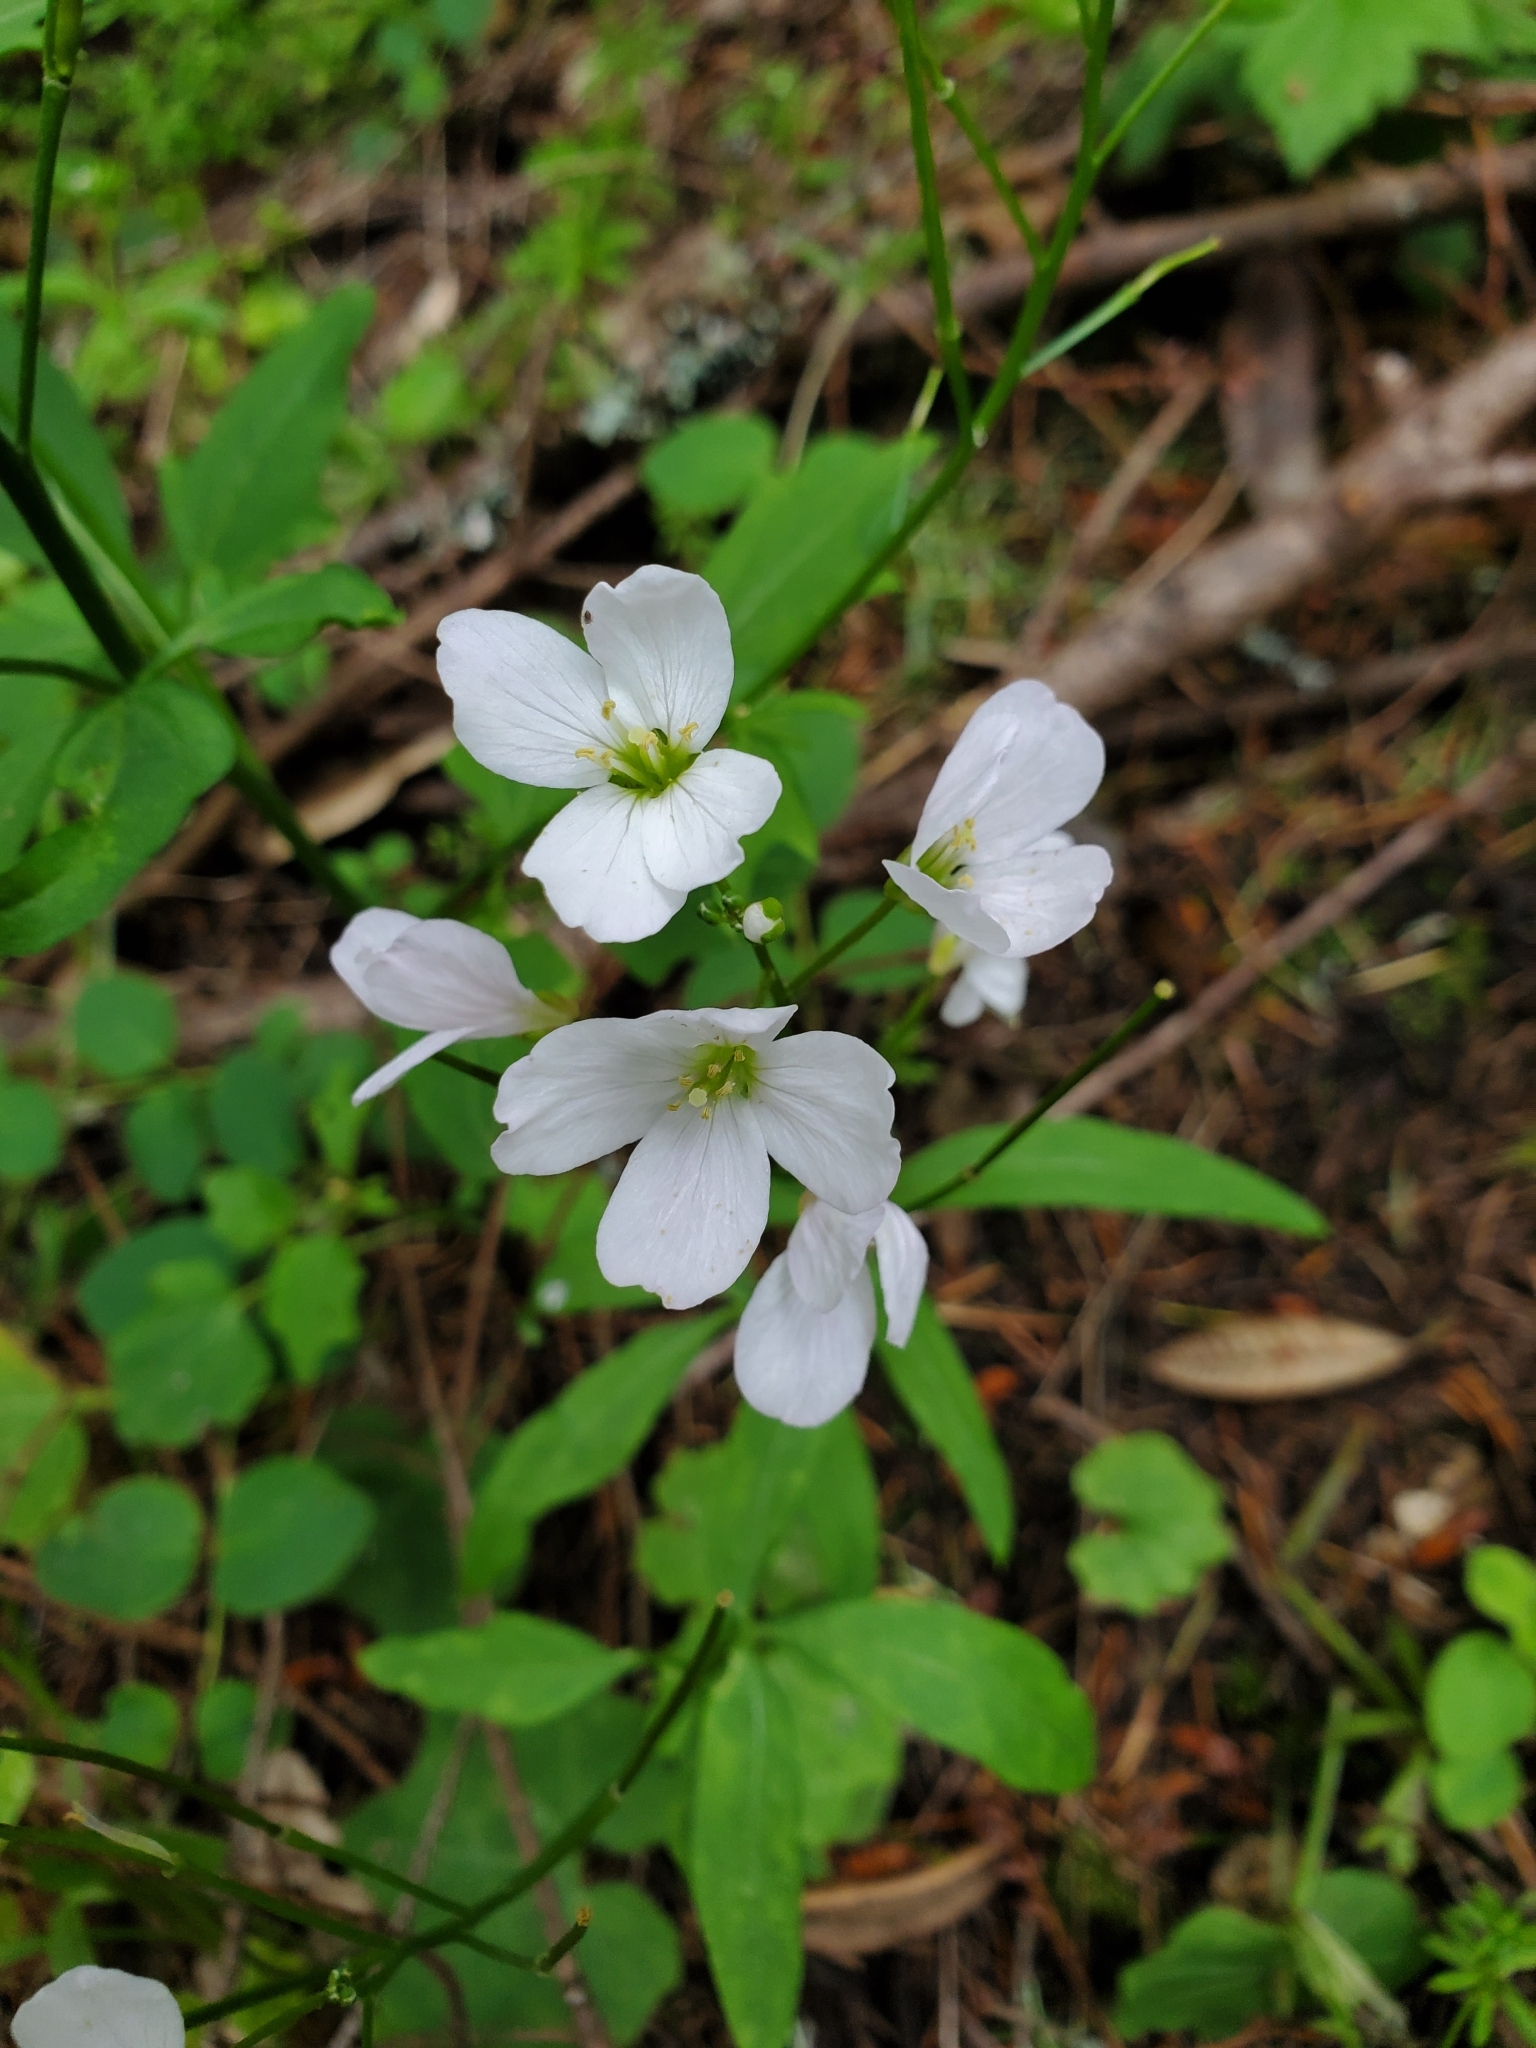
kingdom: Plantae
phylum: Tracheophyta
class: Magnoliopsida
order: Brassicales
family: Brassicaceae
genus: Cardamine
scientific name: Cardamine californica
